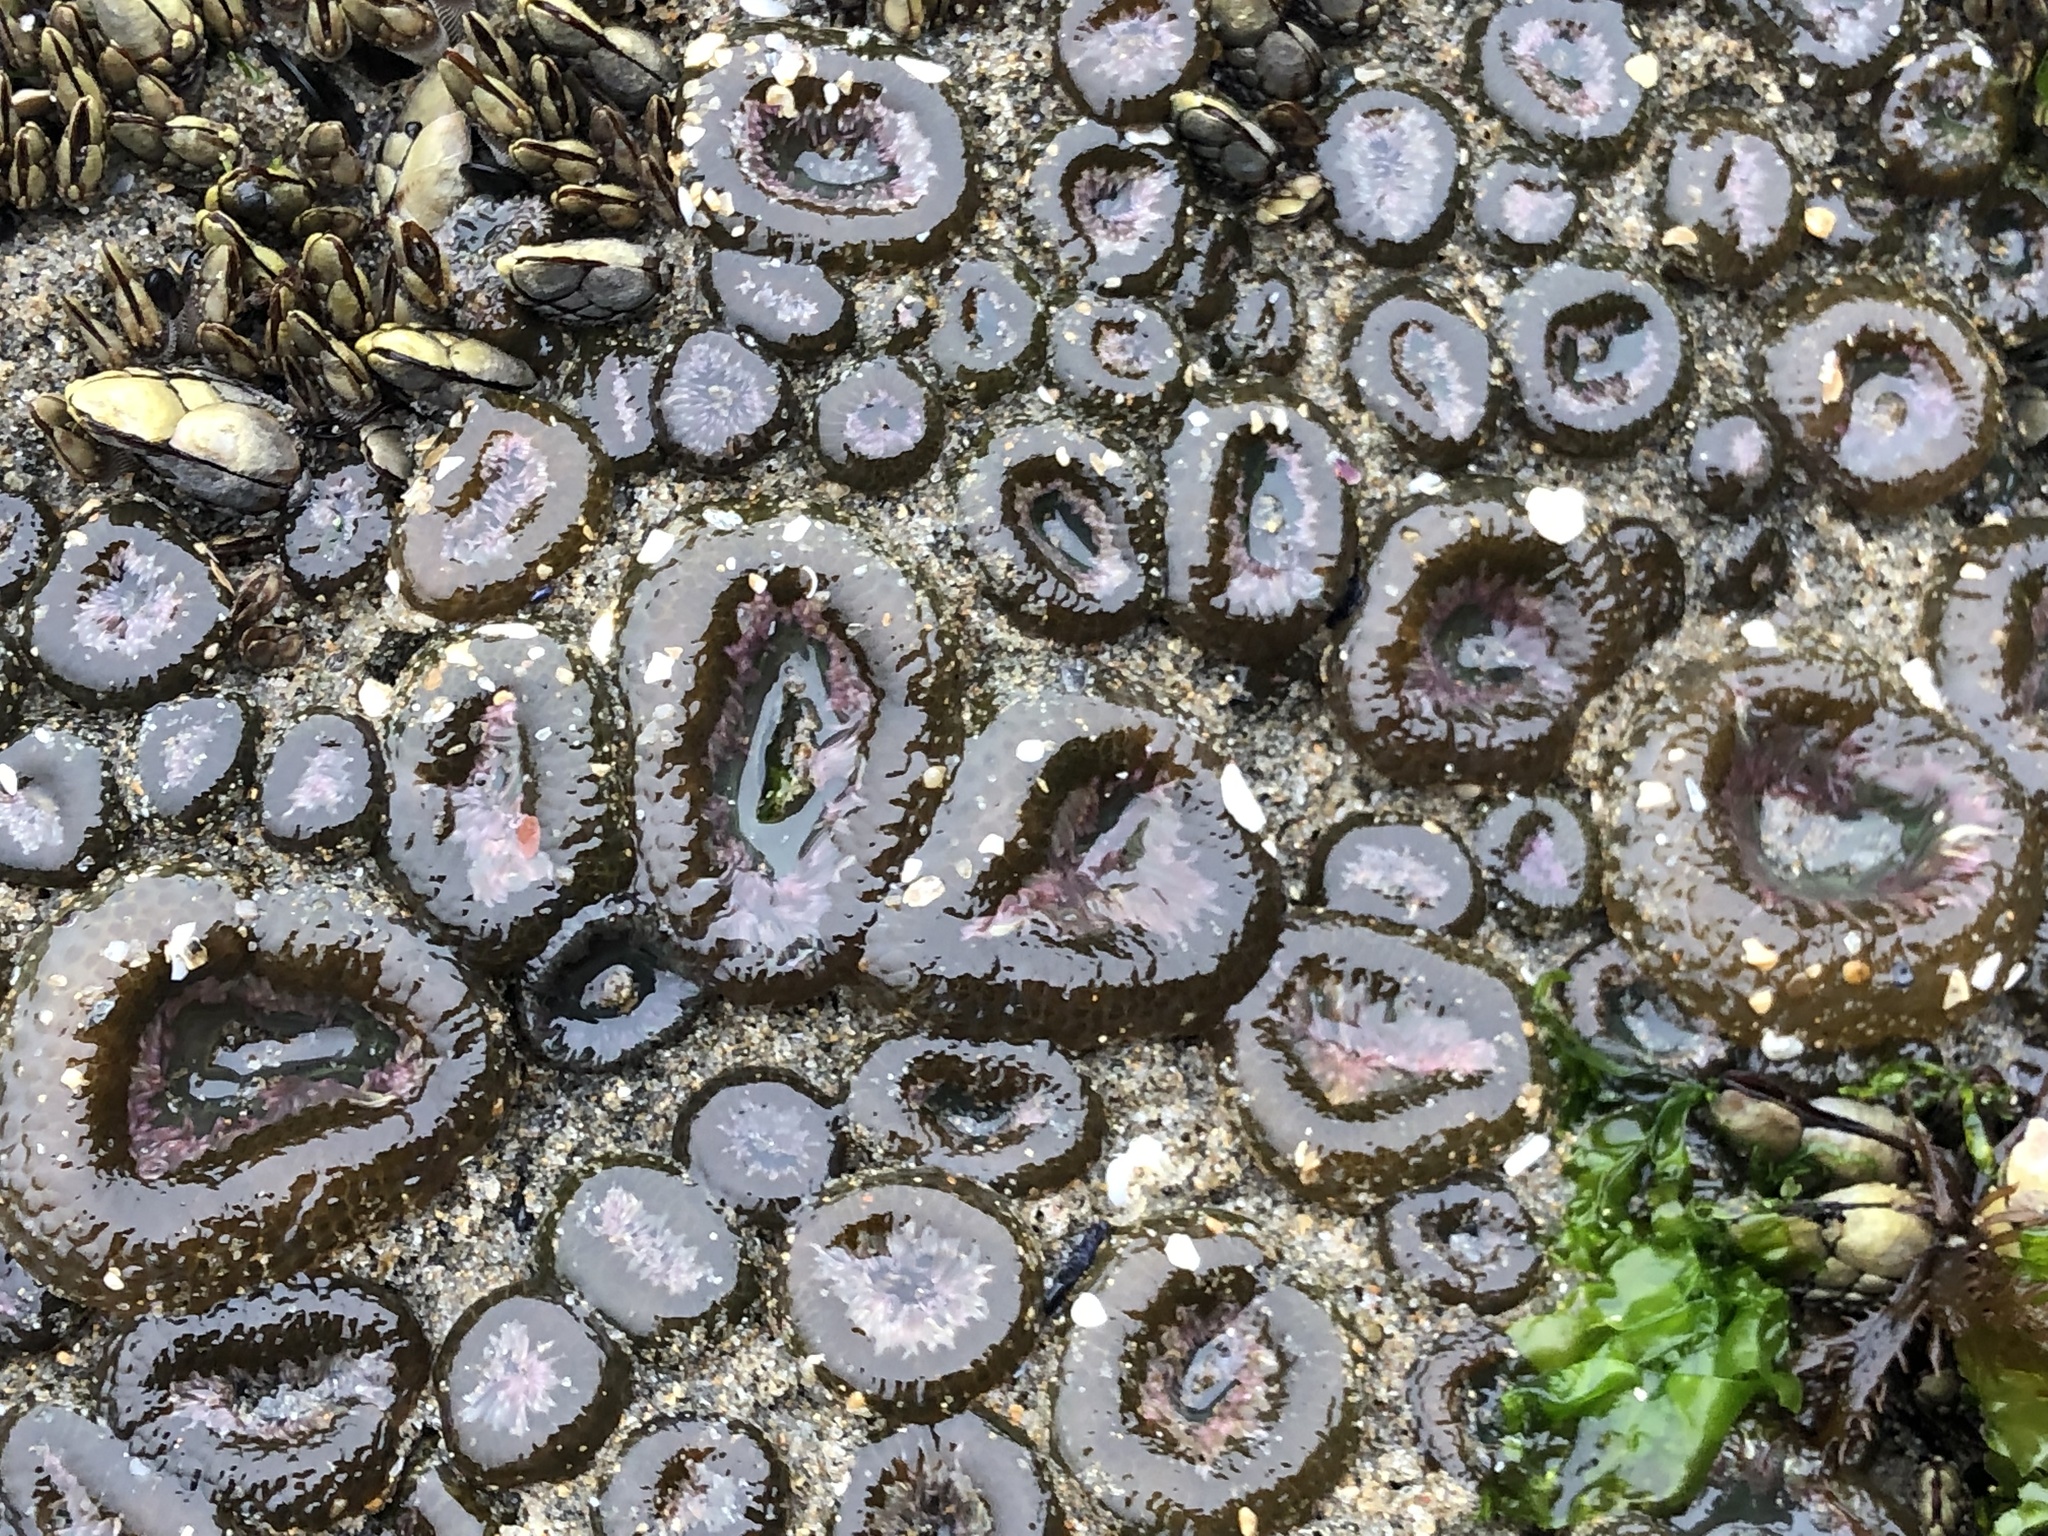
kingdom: Animalia
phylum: Cnidaria
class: Anthozoa
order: Actiniaria
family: Actiniidae
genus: Anthopleura
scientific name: Anthopleura elegantissima
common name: Clonal anemone
